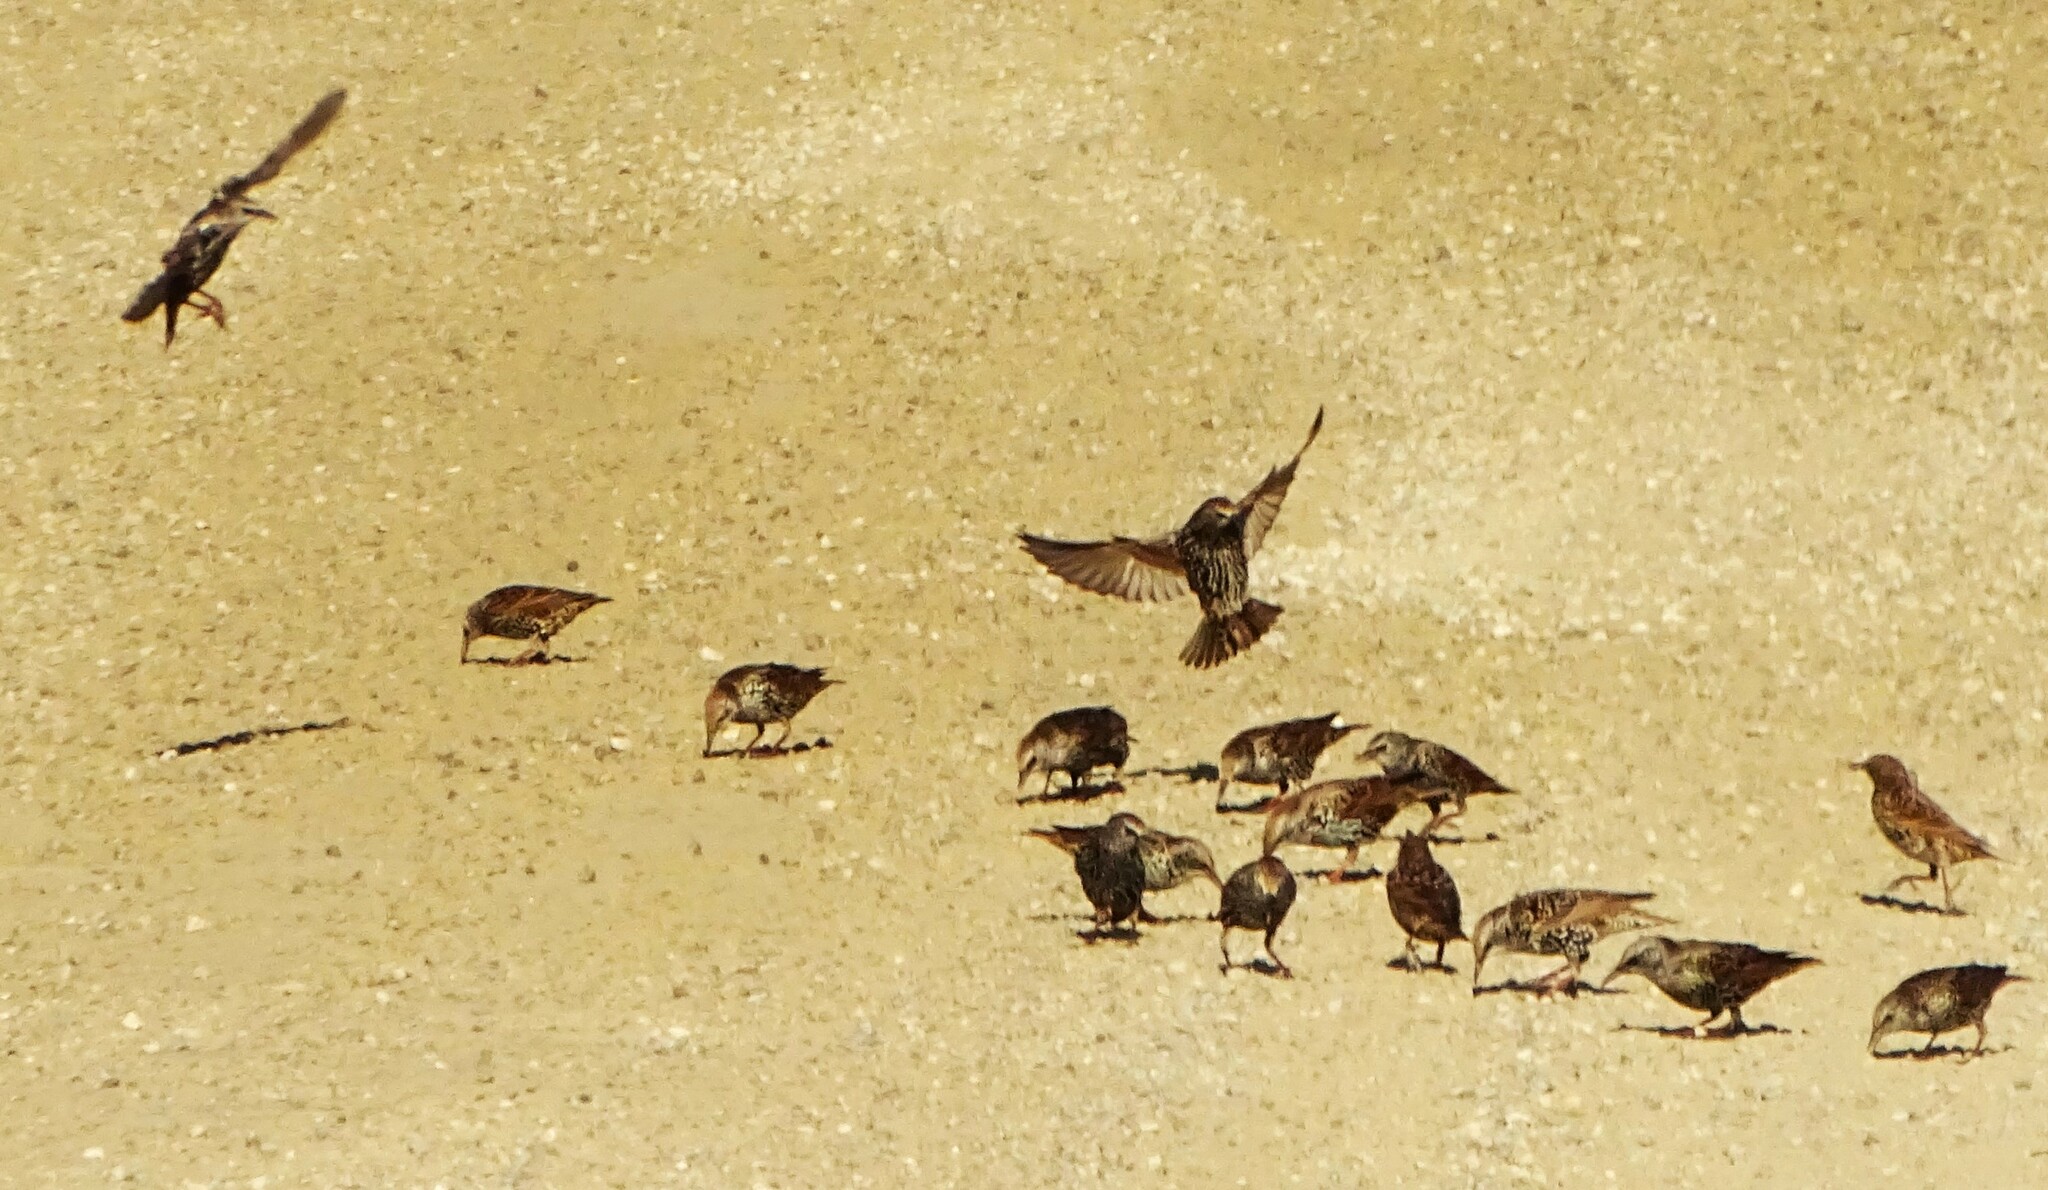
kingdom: Animalia
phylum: Chordata
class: Aves
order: Passeriformes
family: Sturnidae
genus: Sturnus
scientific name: Sturnus vulgaris
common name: Common starling
